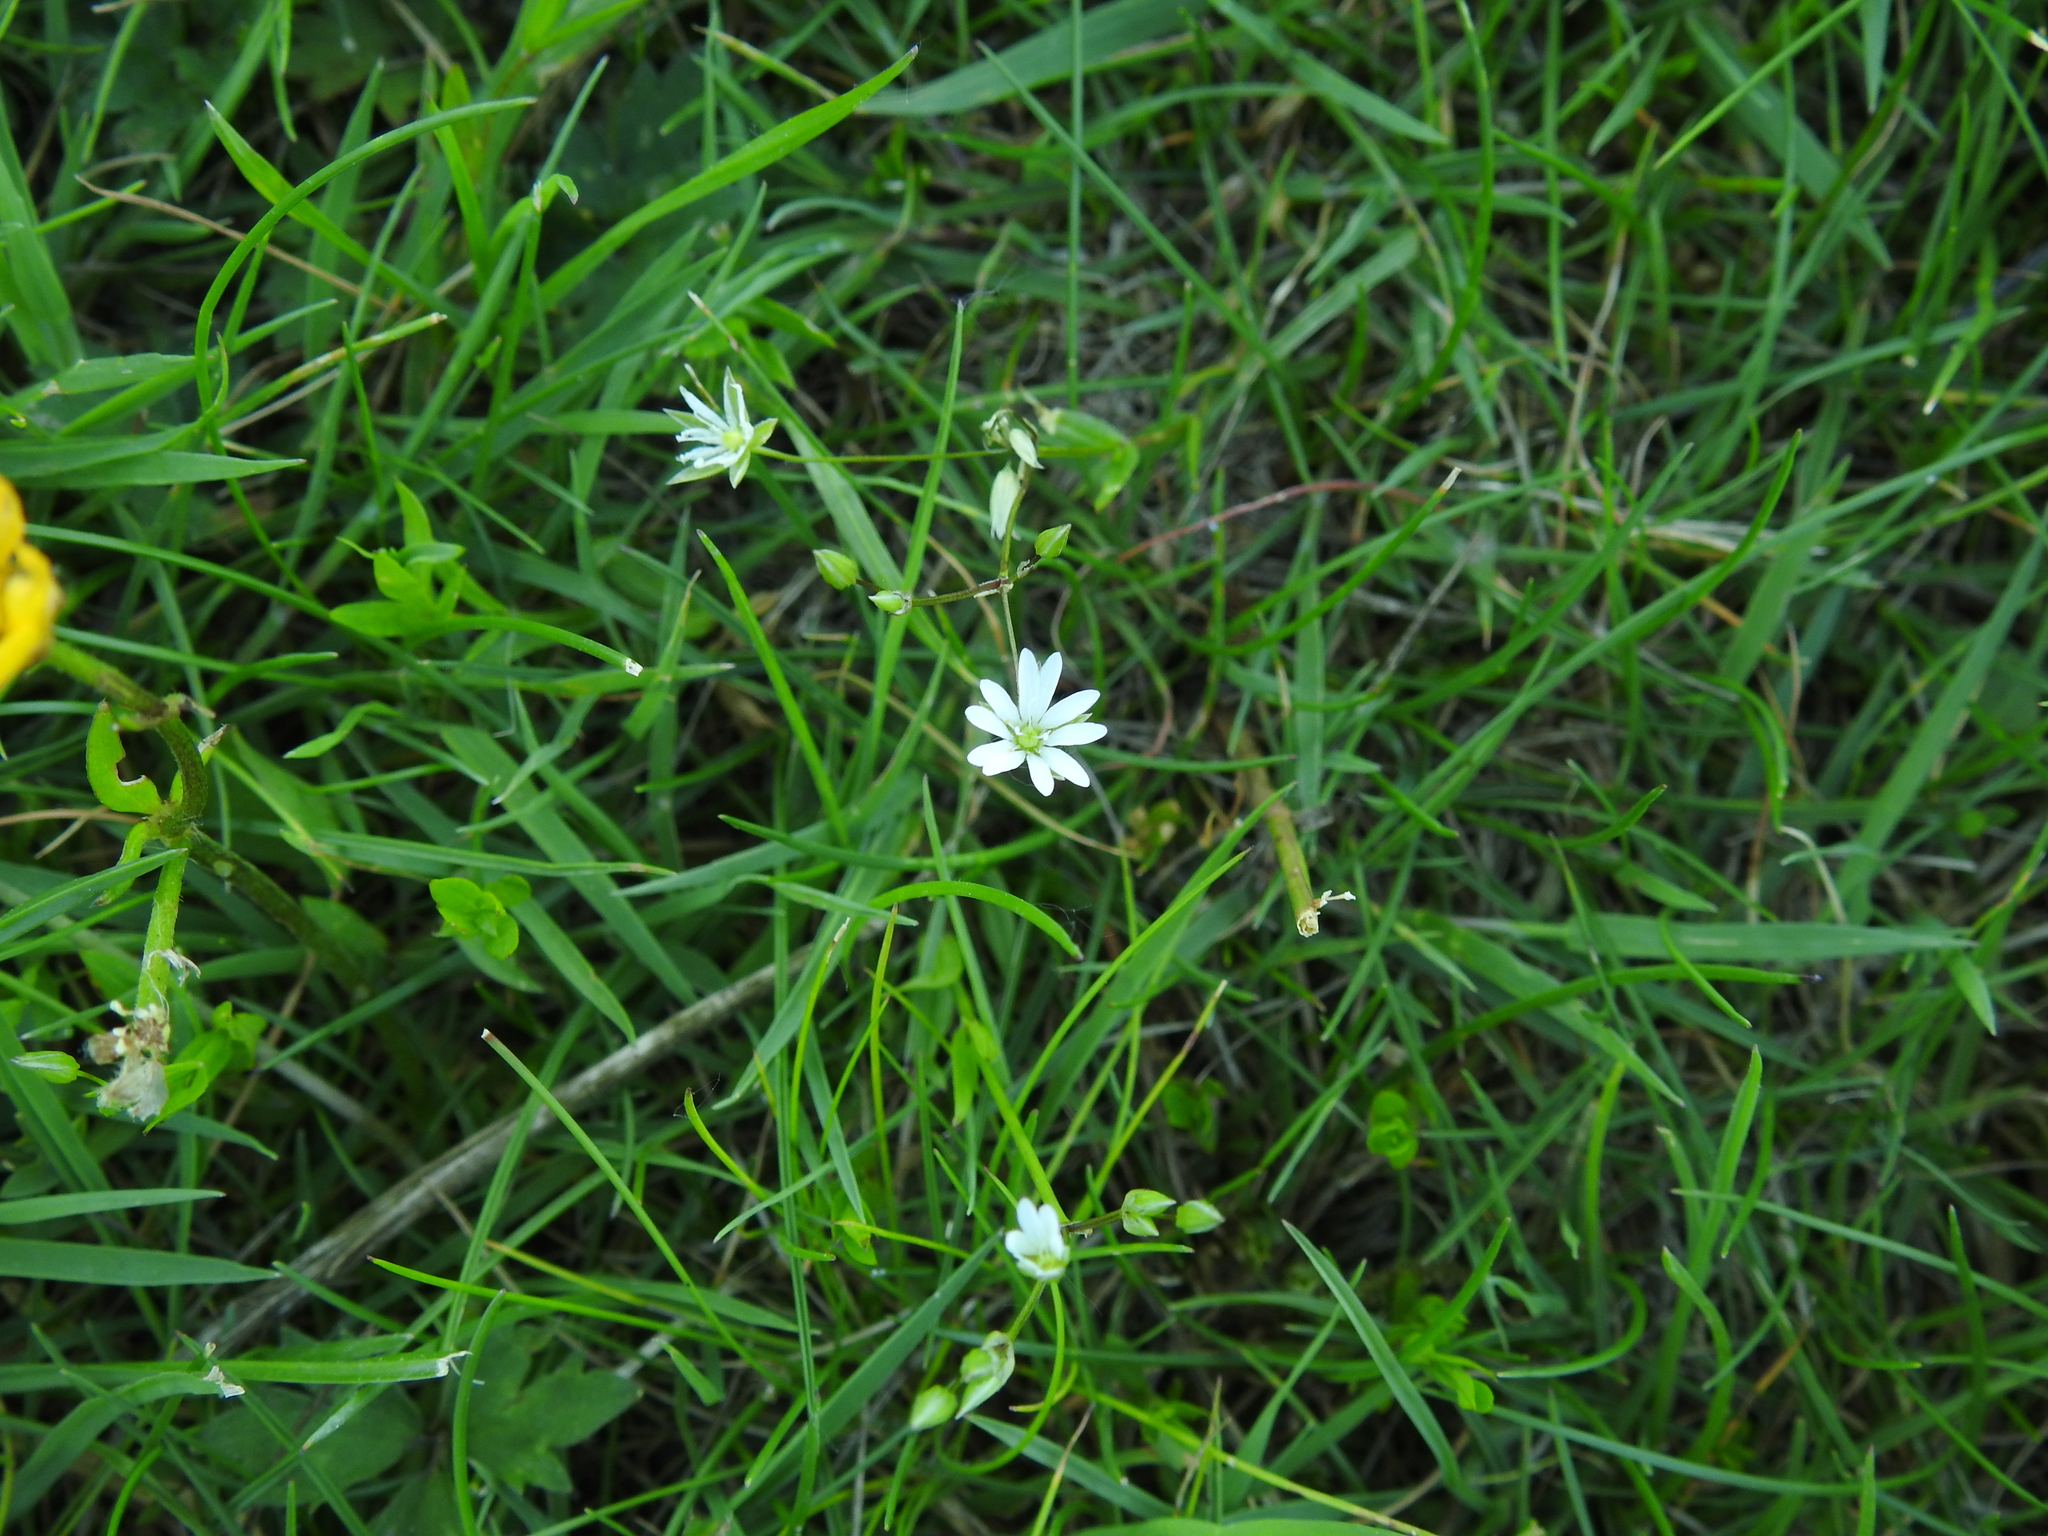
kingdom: Plantae
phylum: Tracheophyta
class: Magnoliopsida
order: Caryophyllales
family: Caryophyllaceae
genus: Stellaria
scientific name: Stellaria graminea
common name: Grass-like starwort
